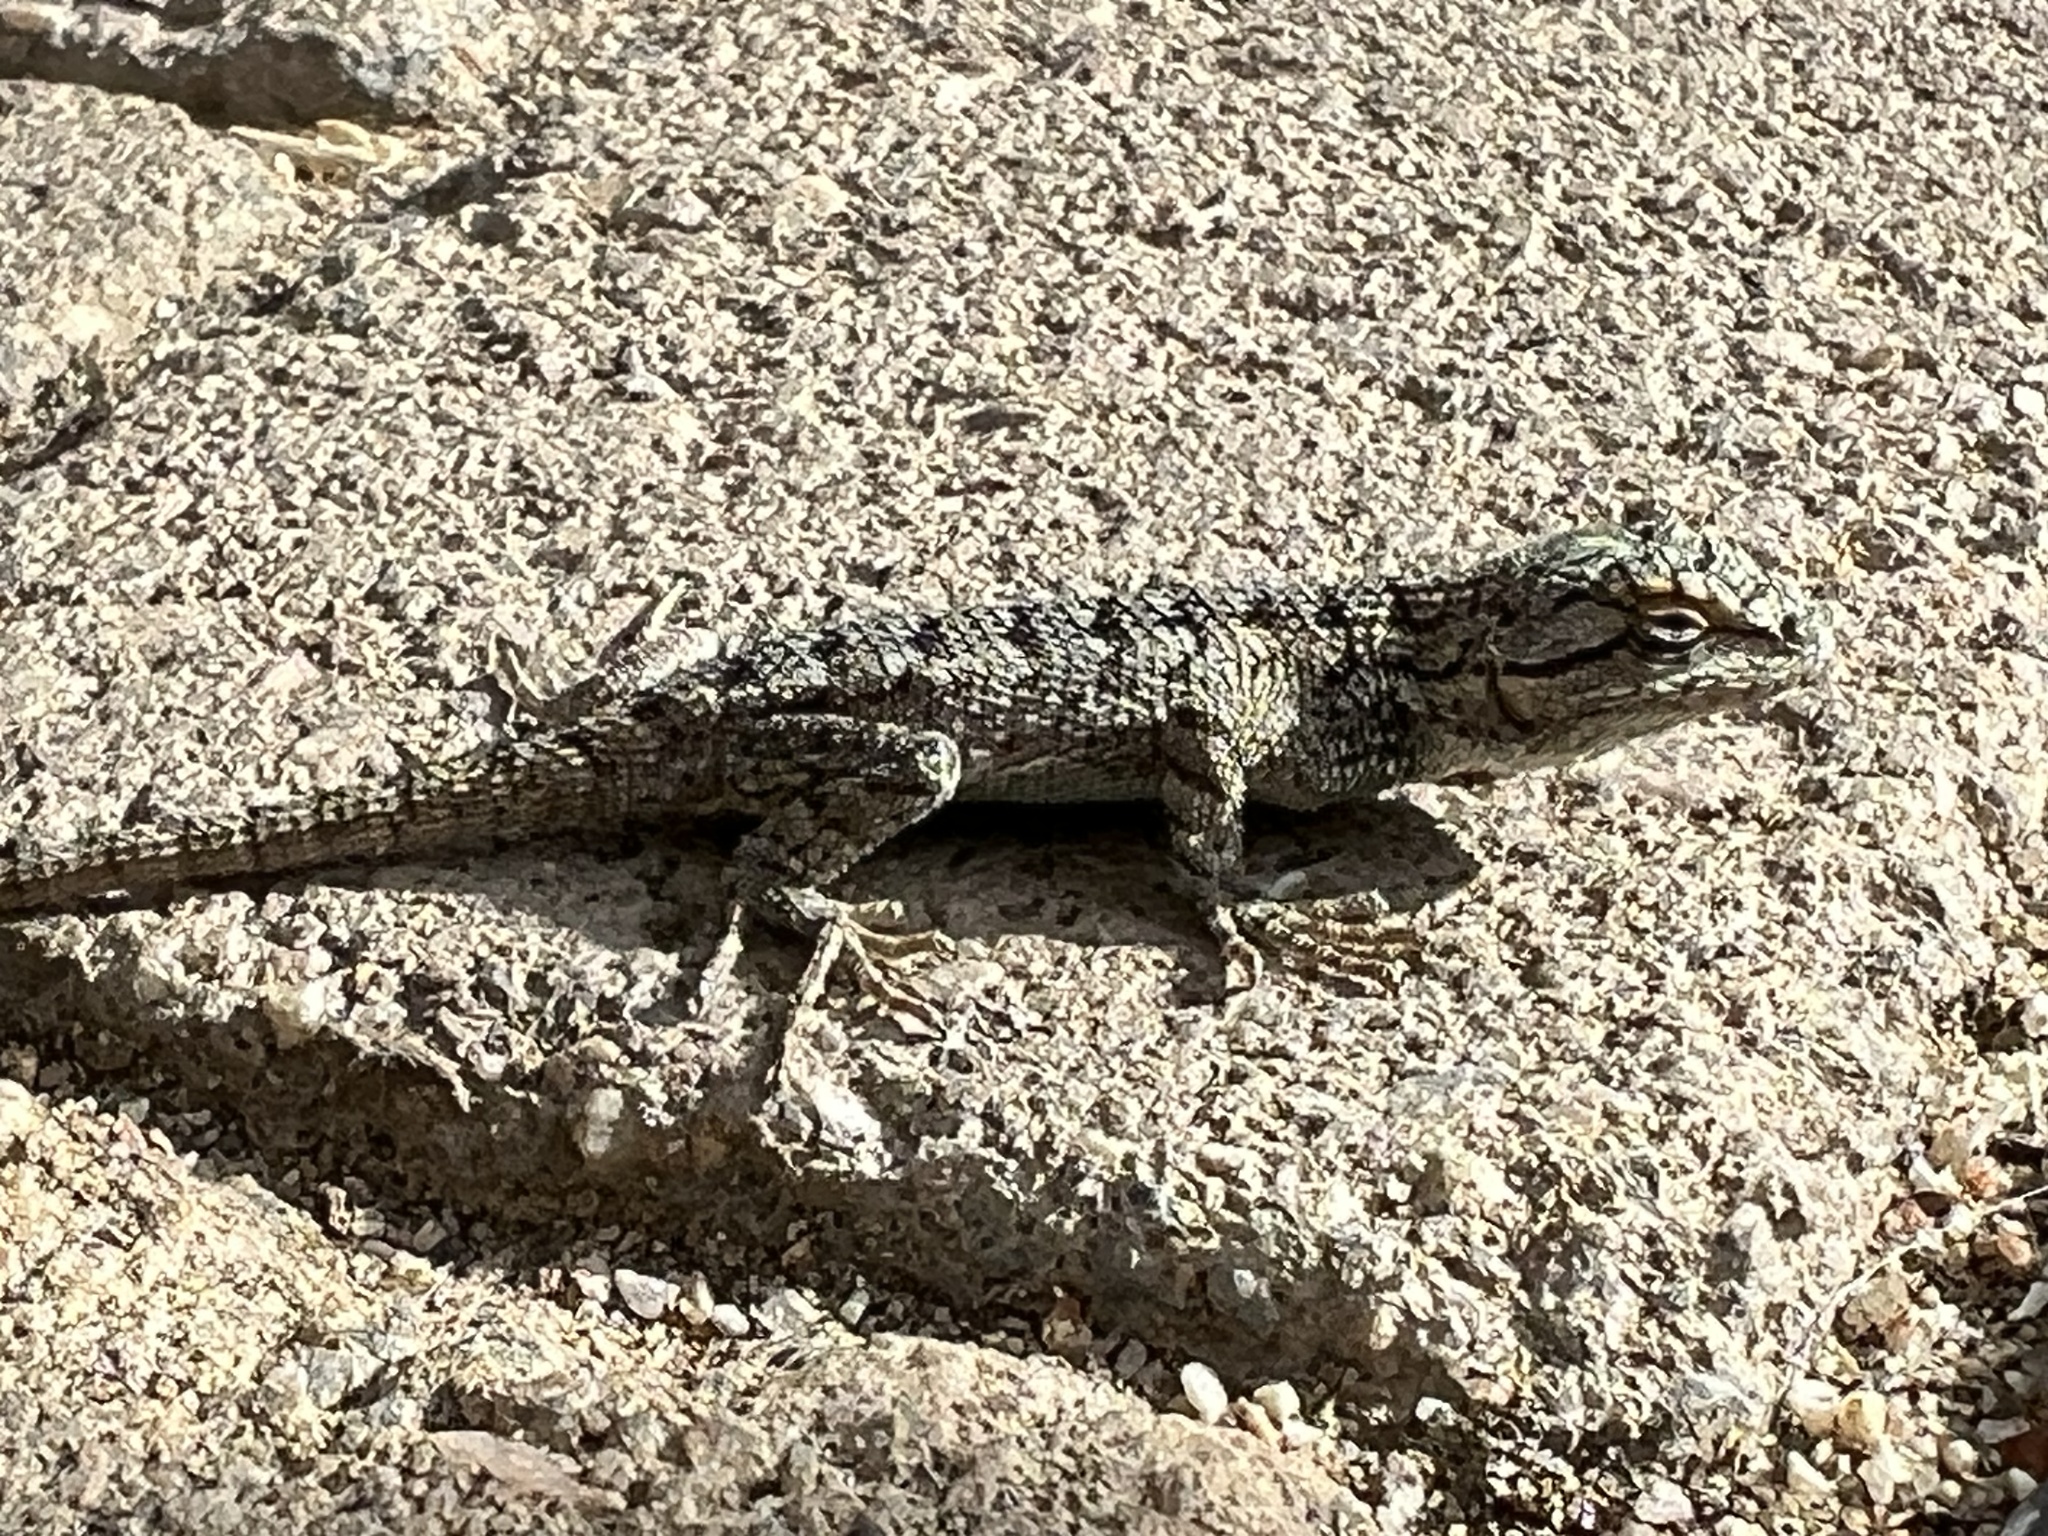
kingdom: Animalia
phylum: Chordata
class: Squamata
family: Phrynosomatidae
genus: Sceloporus
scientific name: Sceloporus occidentalis
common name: Western fence lizard
